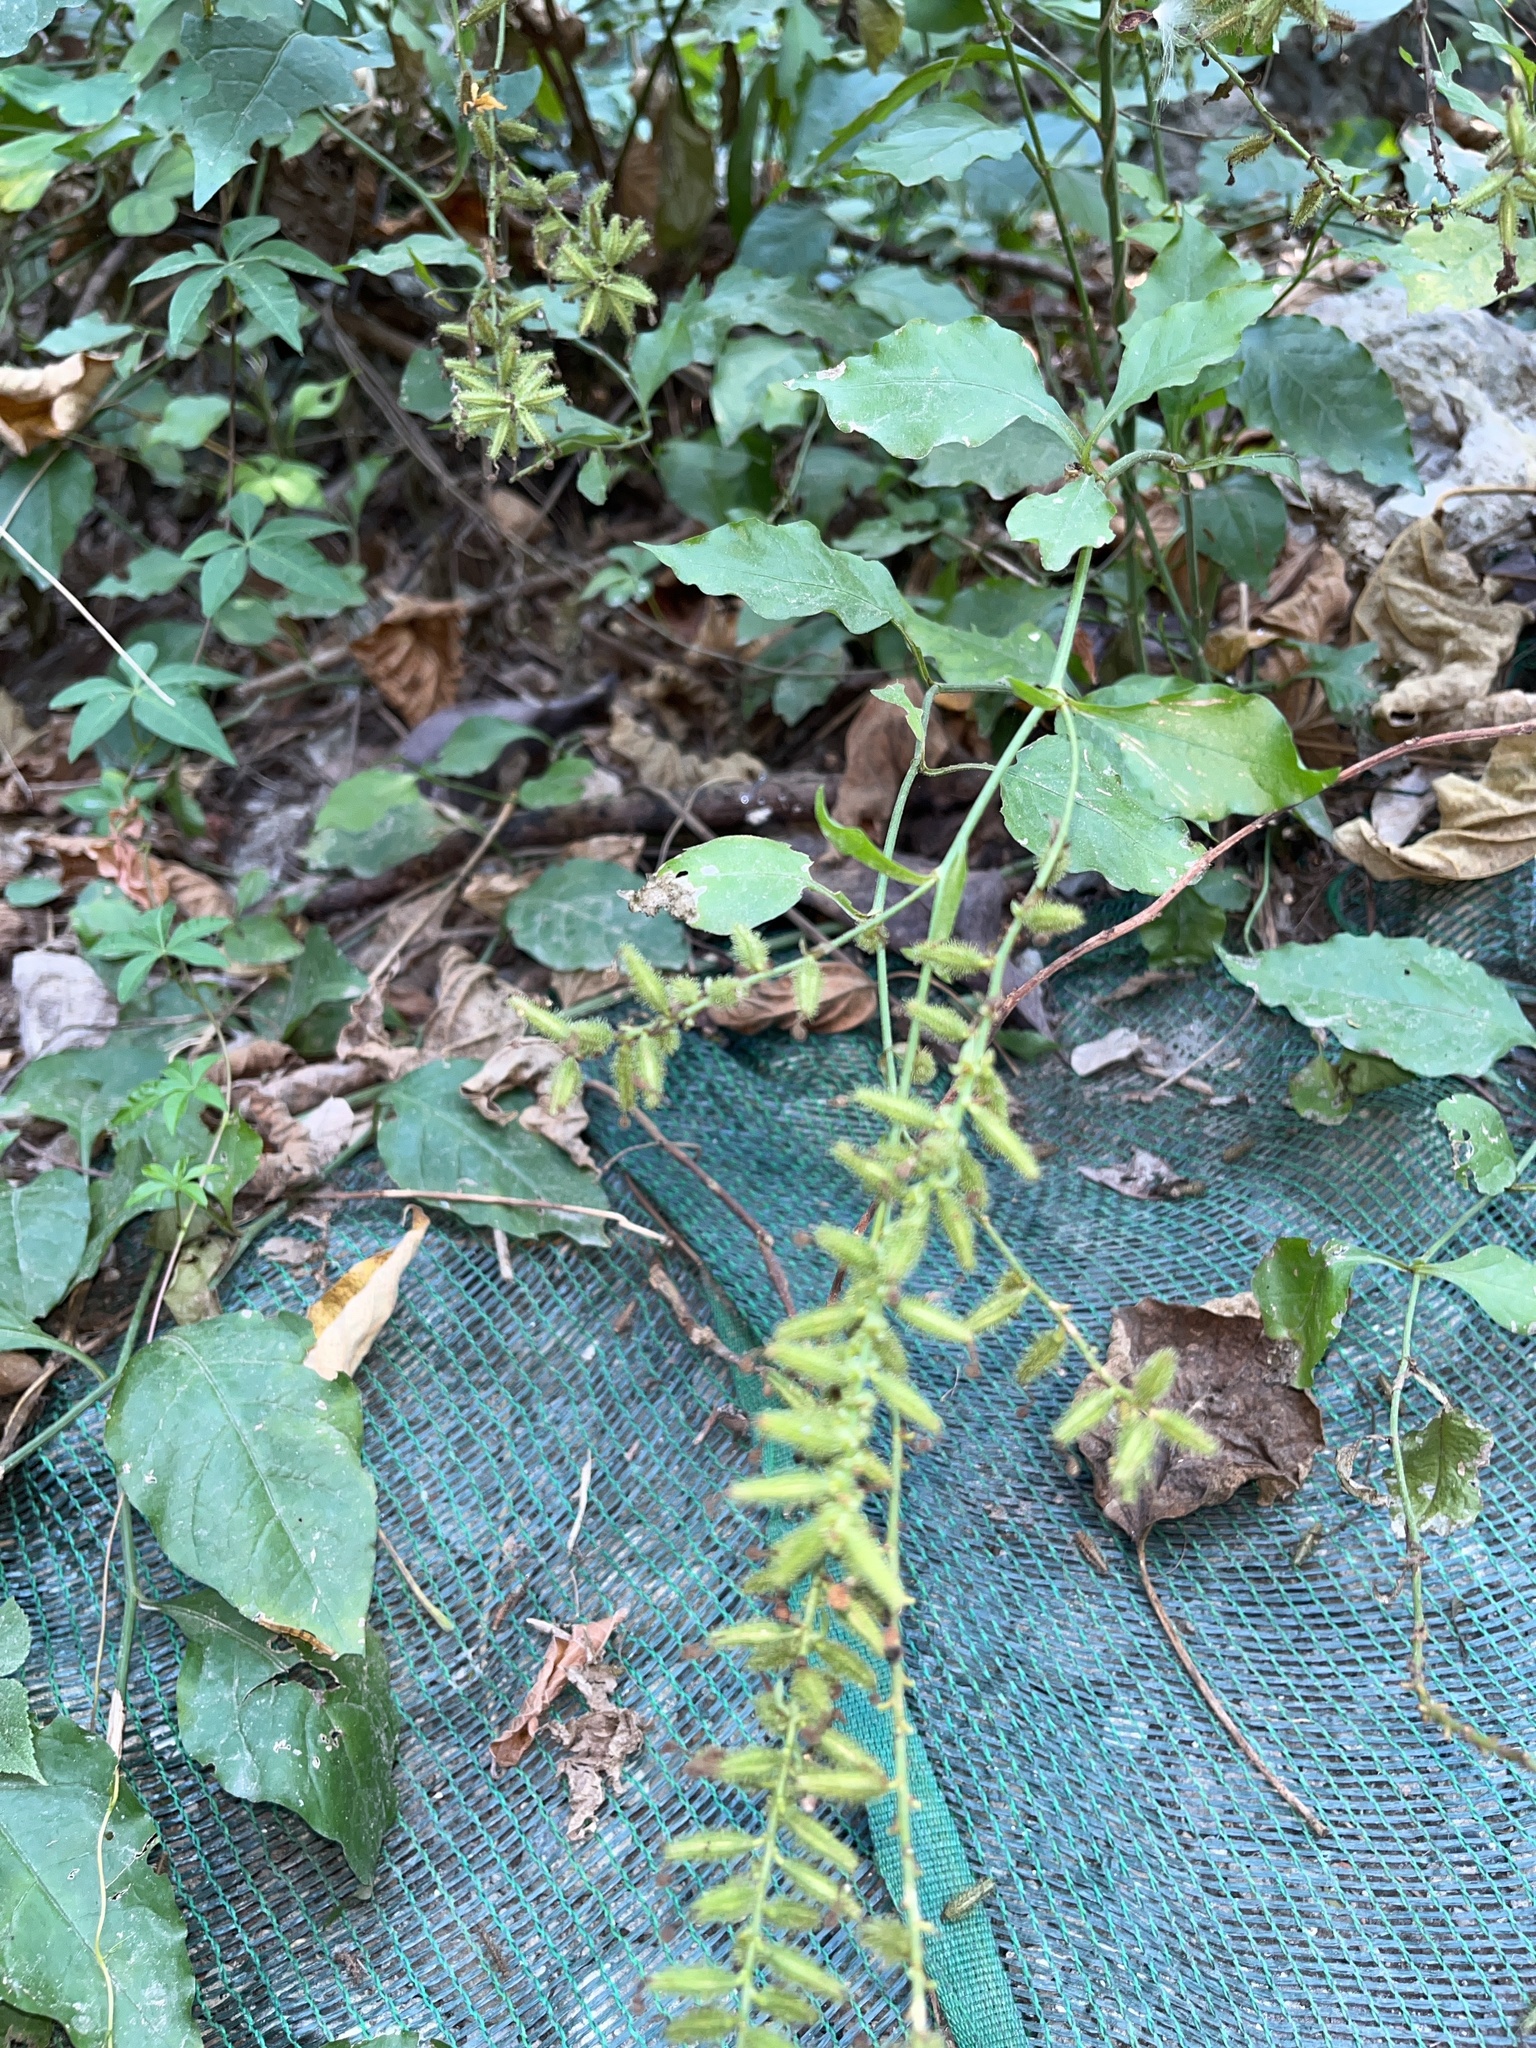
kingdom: Plantae
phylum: Tracheophyta
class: Magnoliopsida
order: Caryophyllales
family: Plumbaginaceae
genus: Plumbago
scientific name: Plumbago zeylanica
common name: Doctorbush
